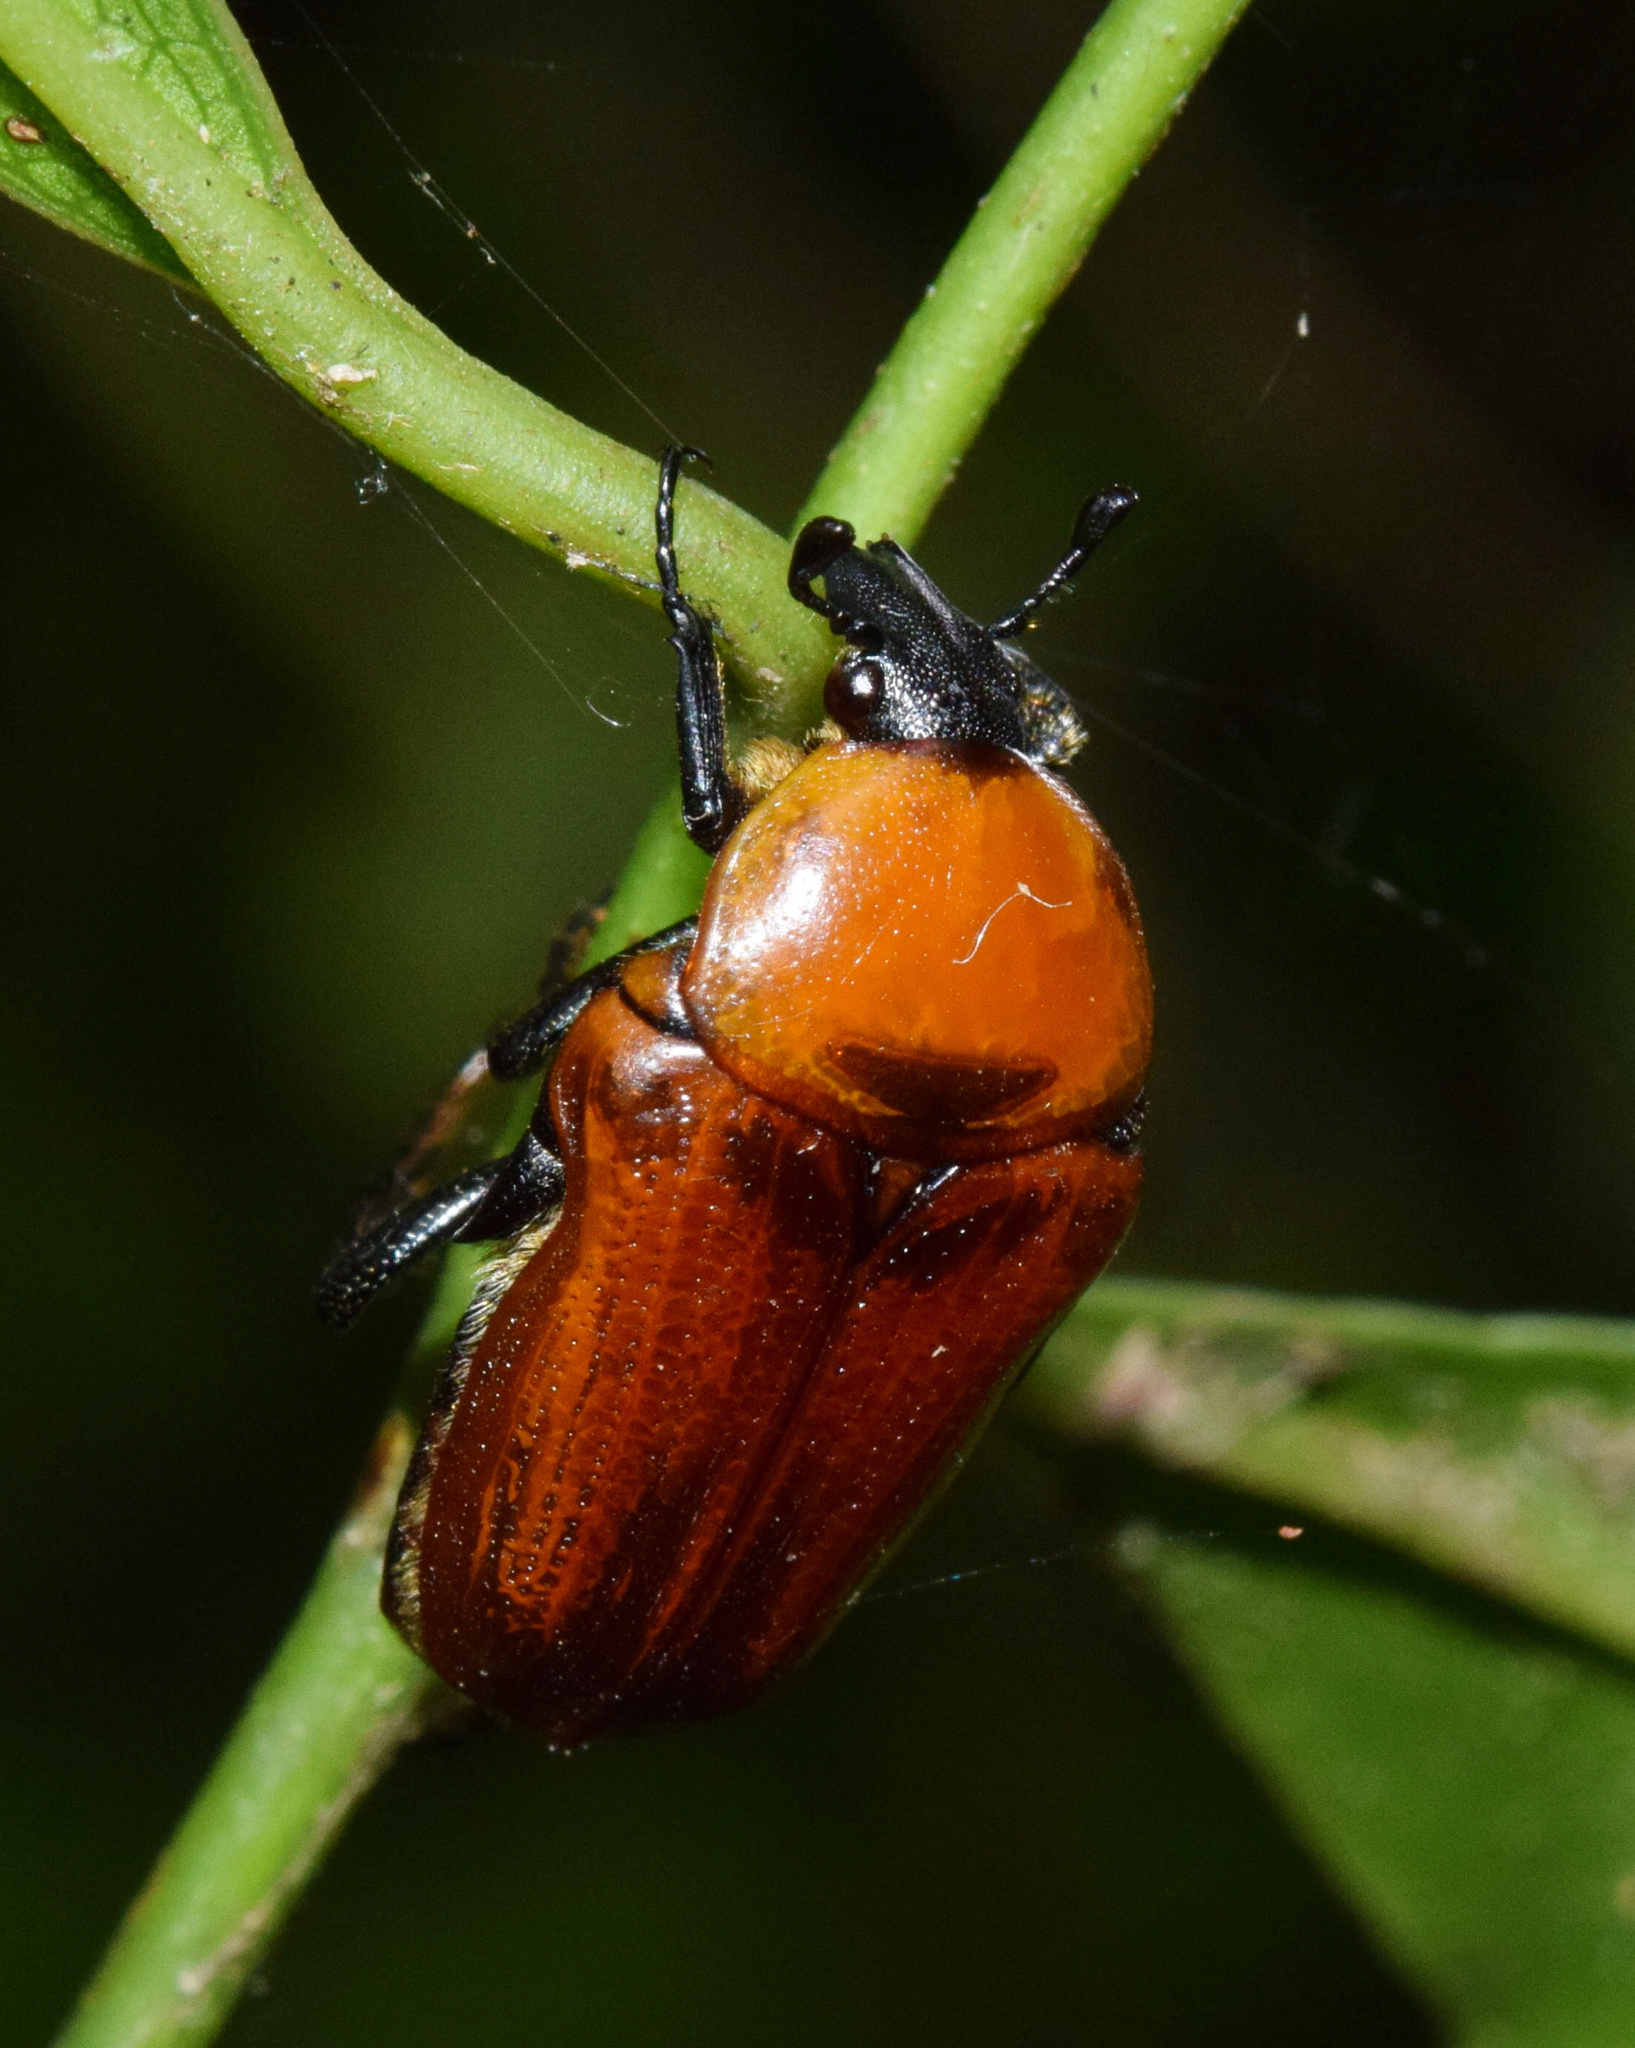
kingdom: Animalia
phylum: Arthropoda
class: Insecta
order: Coleoptera
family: Scarabaeidae
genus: Leucocelis
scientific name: Leucocelis rubra
